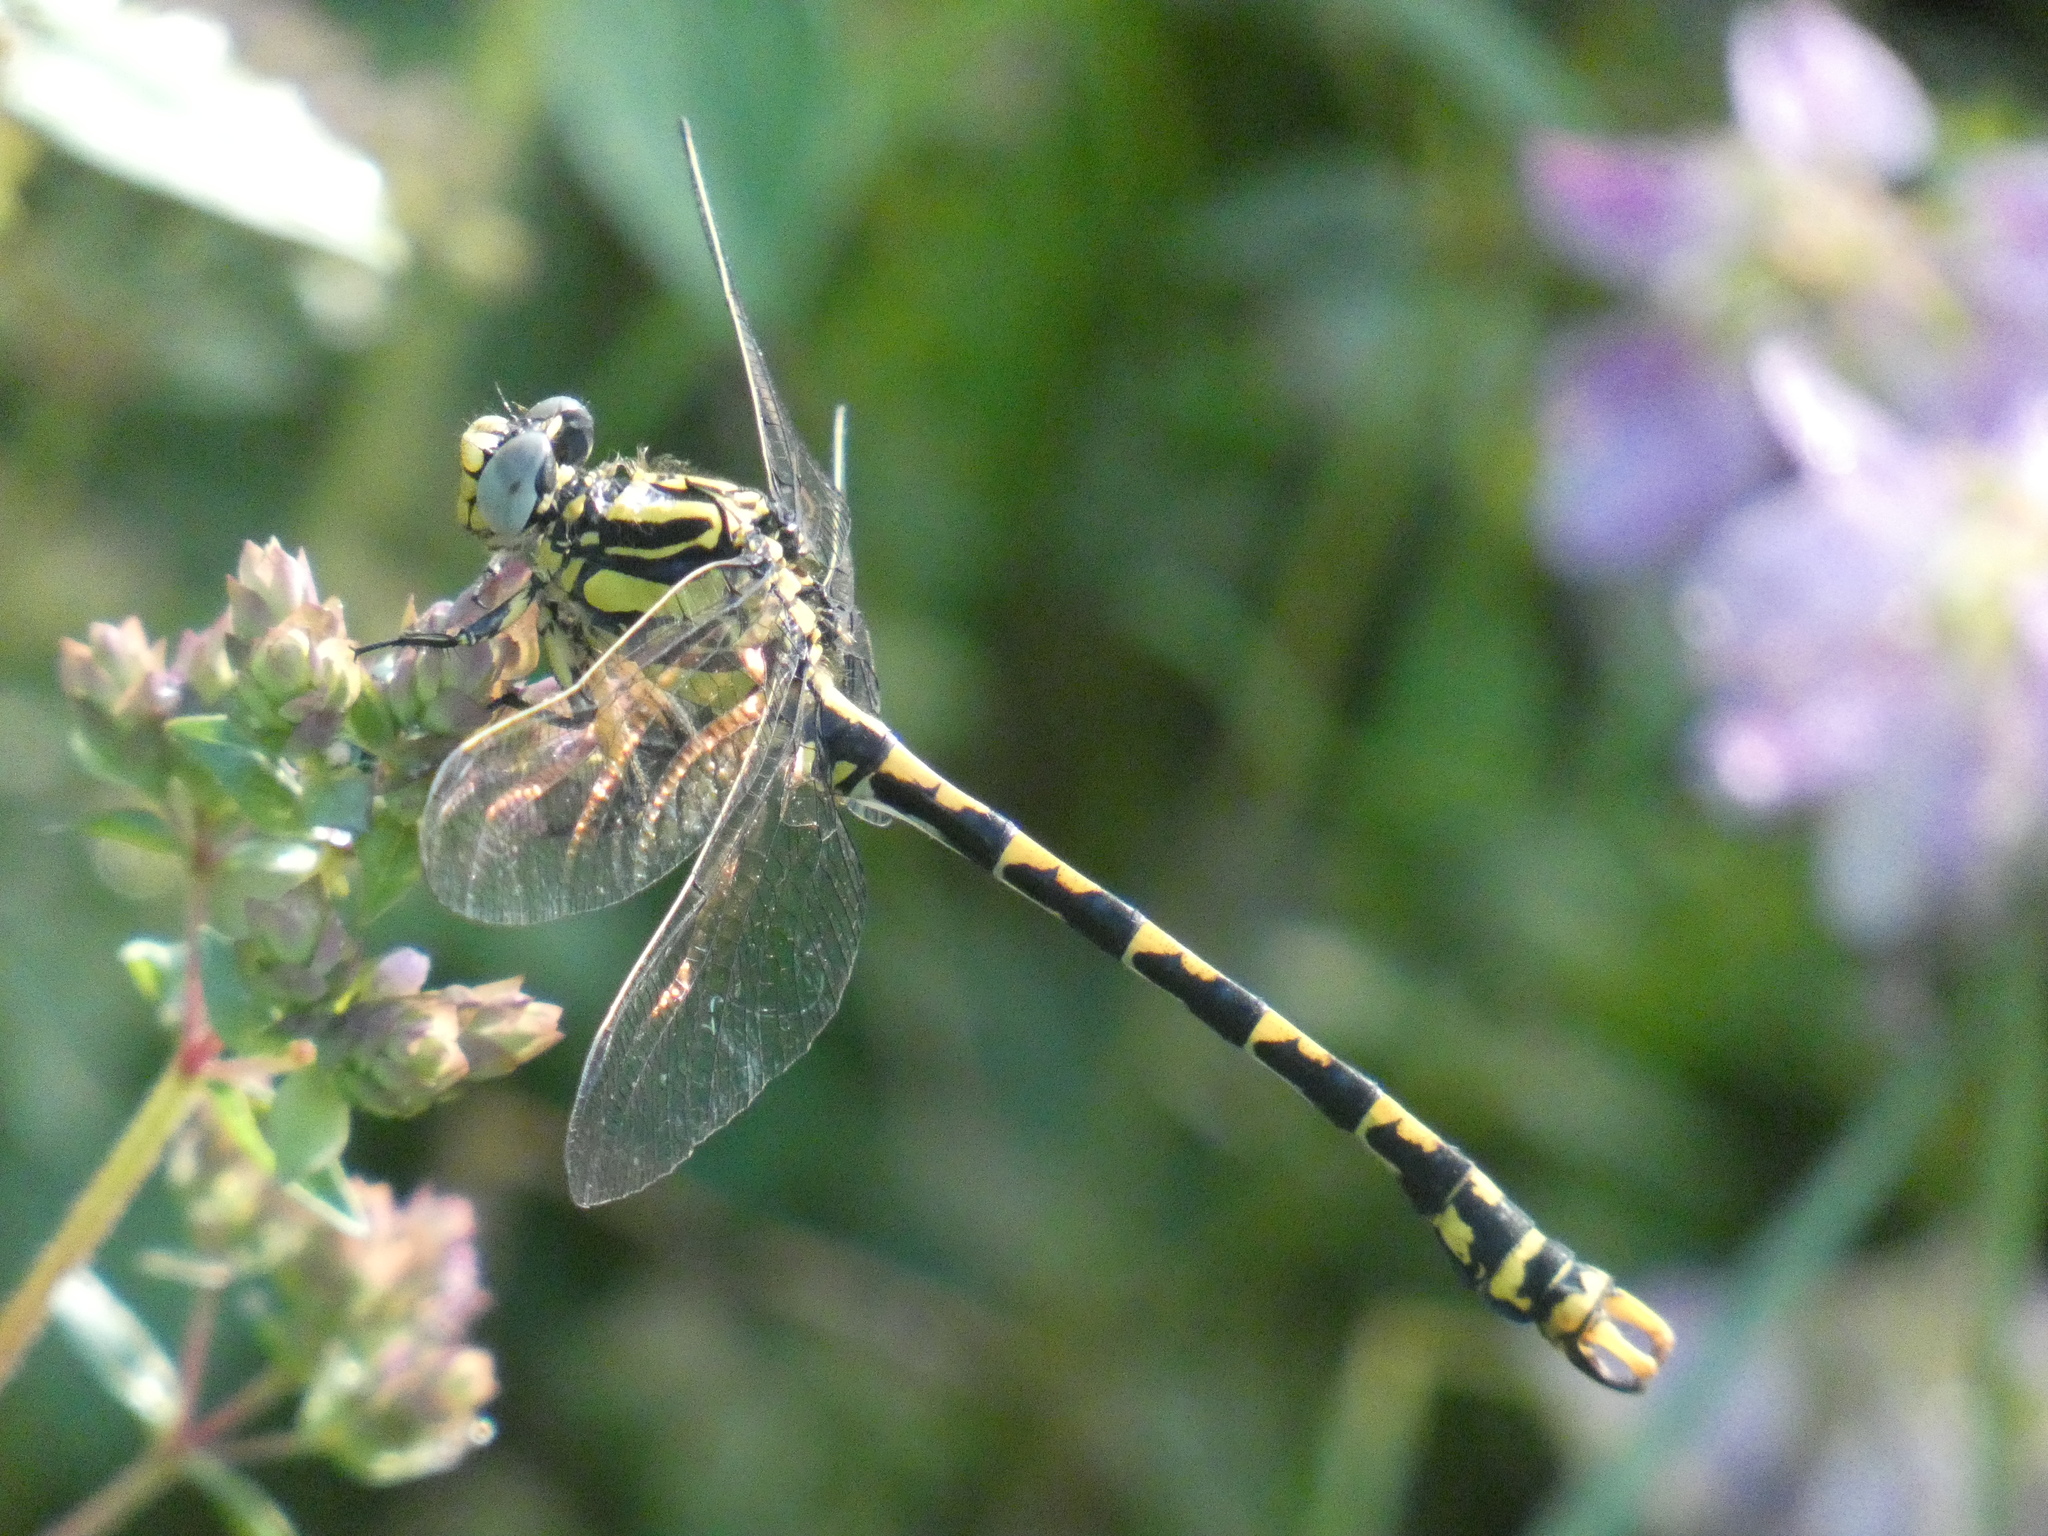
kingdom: Animalia
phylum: Arthropoda
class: Insecta
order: Odonata
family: Gomphidae
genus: Onychogomphus
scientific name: Onychogomphus uncatus
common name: Large pincertail
